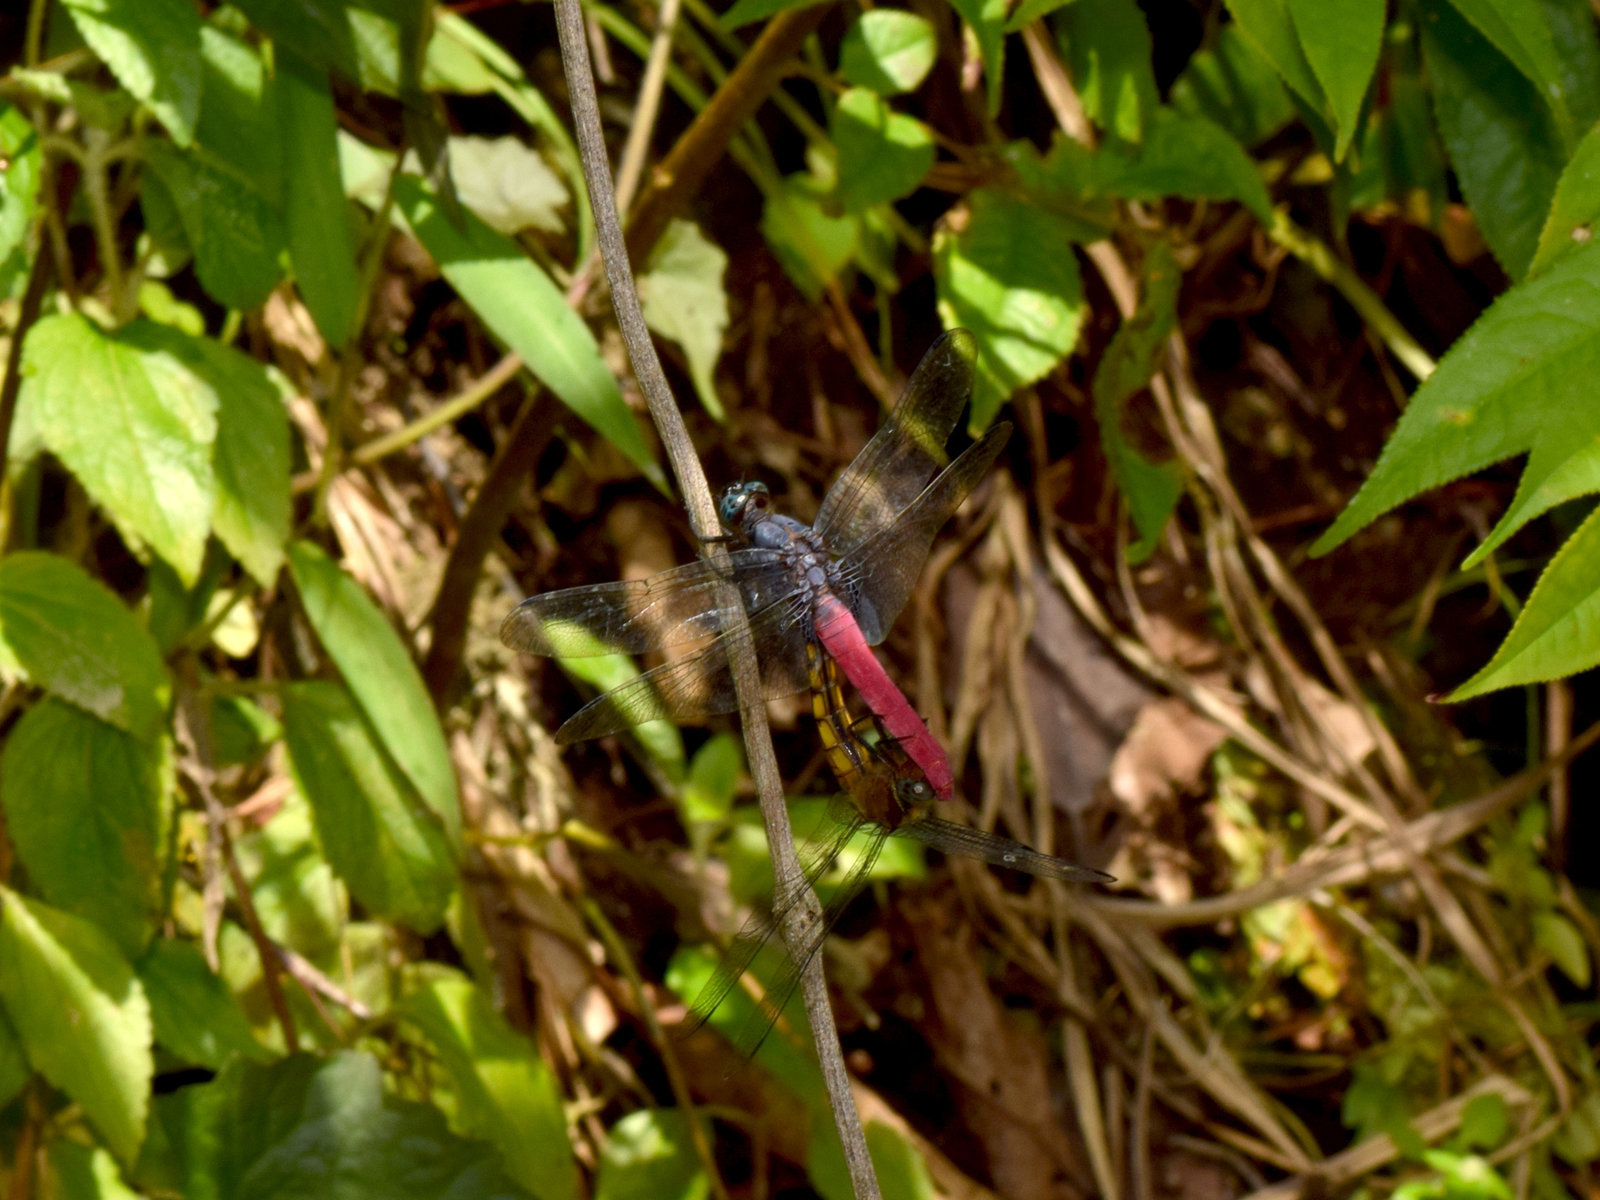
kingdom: Animalia
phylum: Arthropoda
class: Insecta
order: Odonata
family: Libellulidae
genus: Orthetrum
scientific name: Orthetrum pruinosum
